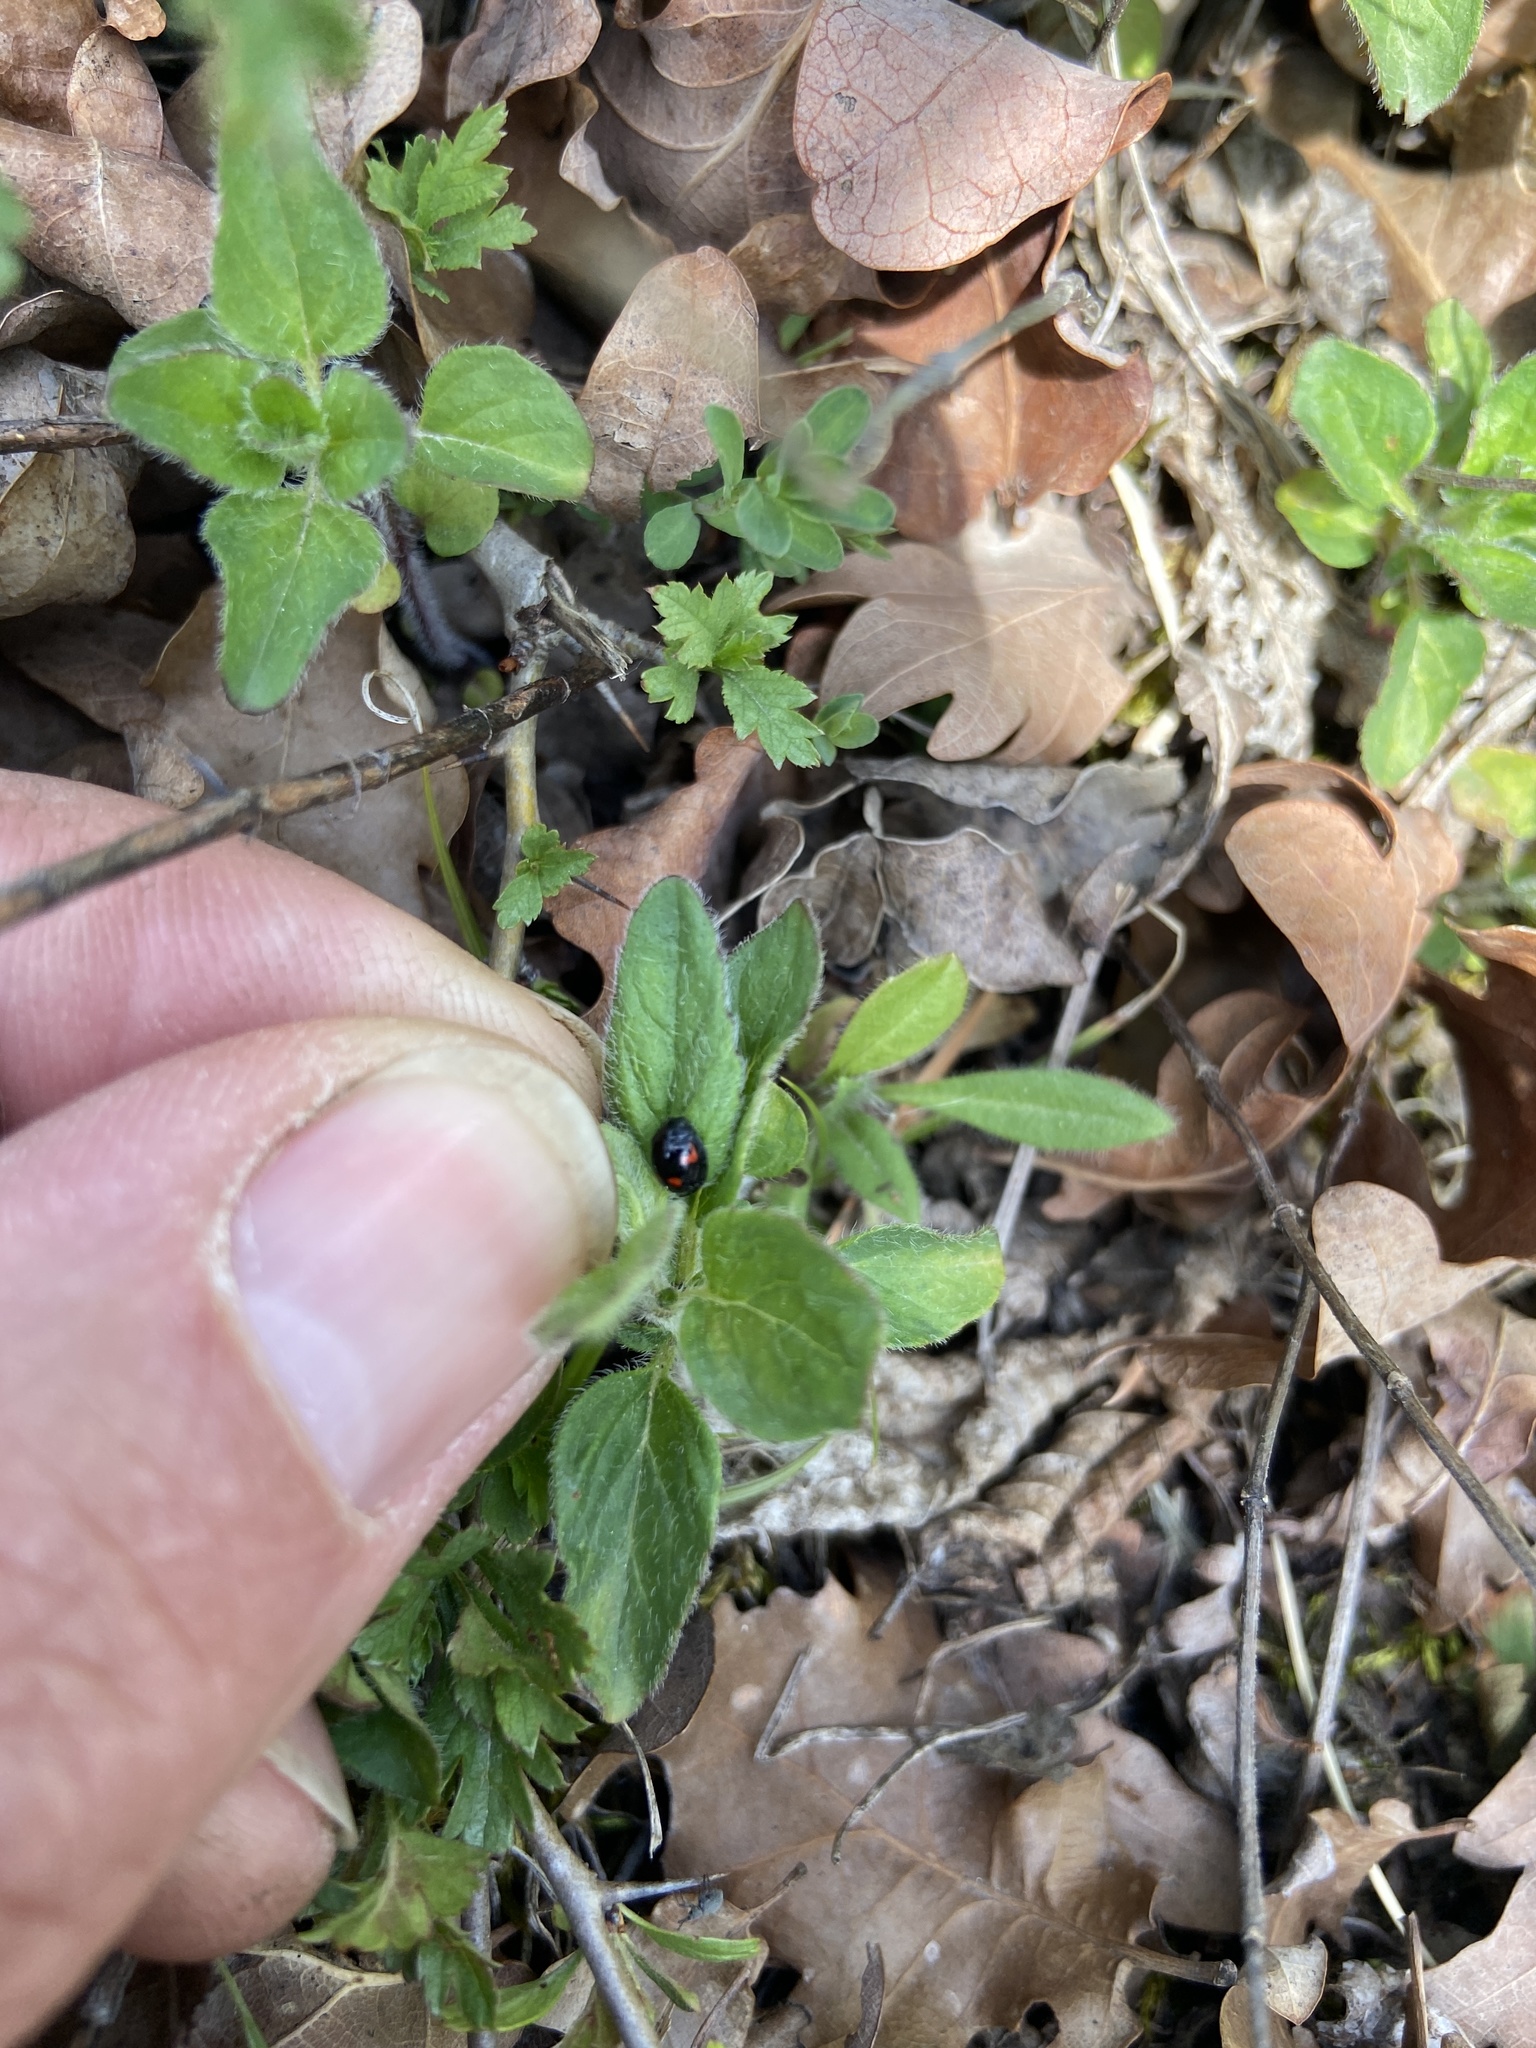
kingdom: Animalia
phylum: Arthropoda
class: Insecta
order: Coleoptera
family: Coccinellidae
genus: Brumus
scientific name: Brumus quadripustulatus
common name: Ladybird beetle
